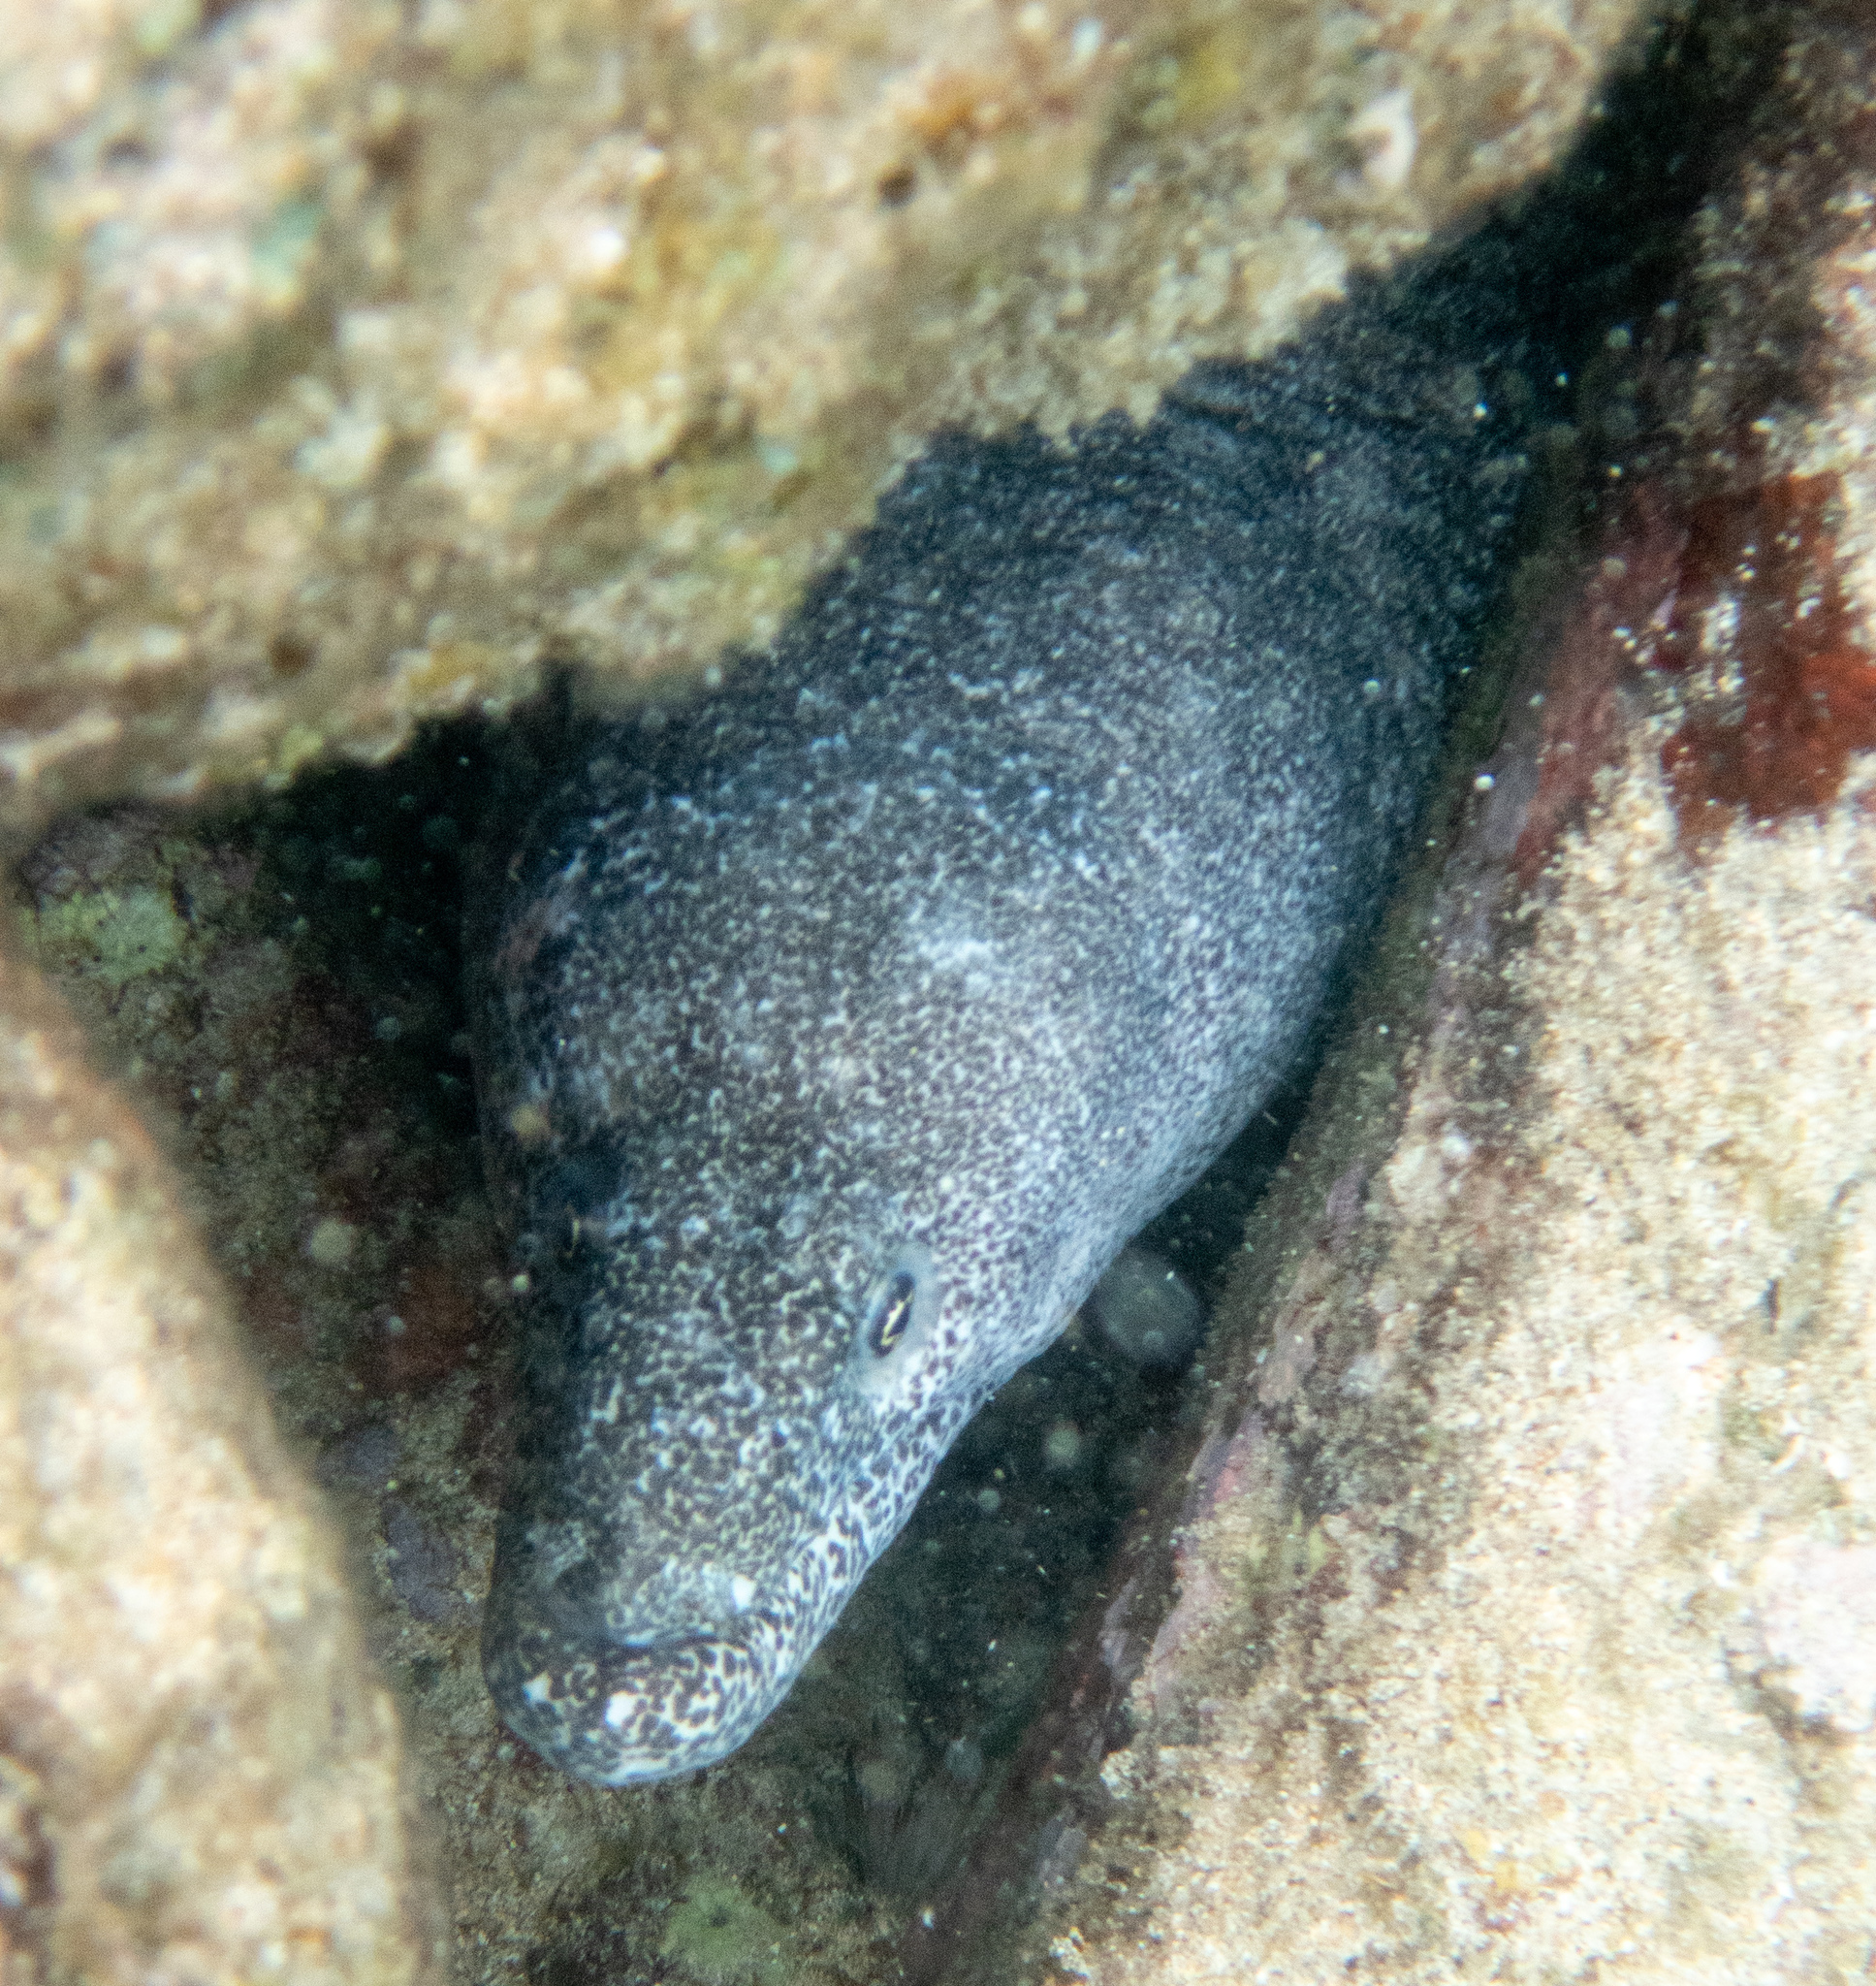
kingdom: Animalia
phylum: Chordata
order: Anguilliformes
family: Muraenidae
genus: Gymnothorax
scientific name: Gymnothorax pictus
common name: Peppered moray
